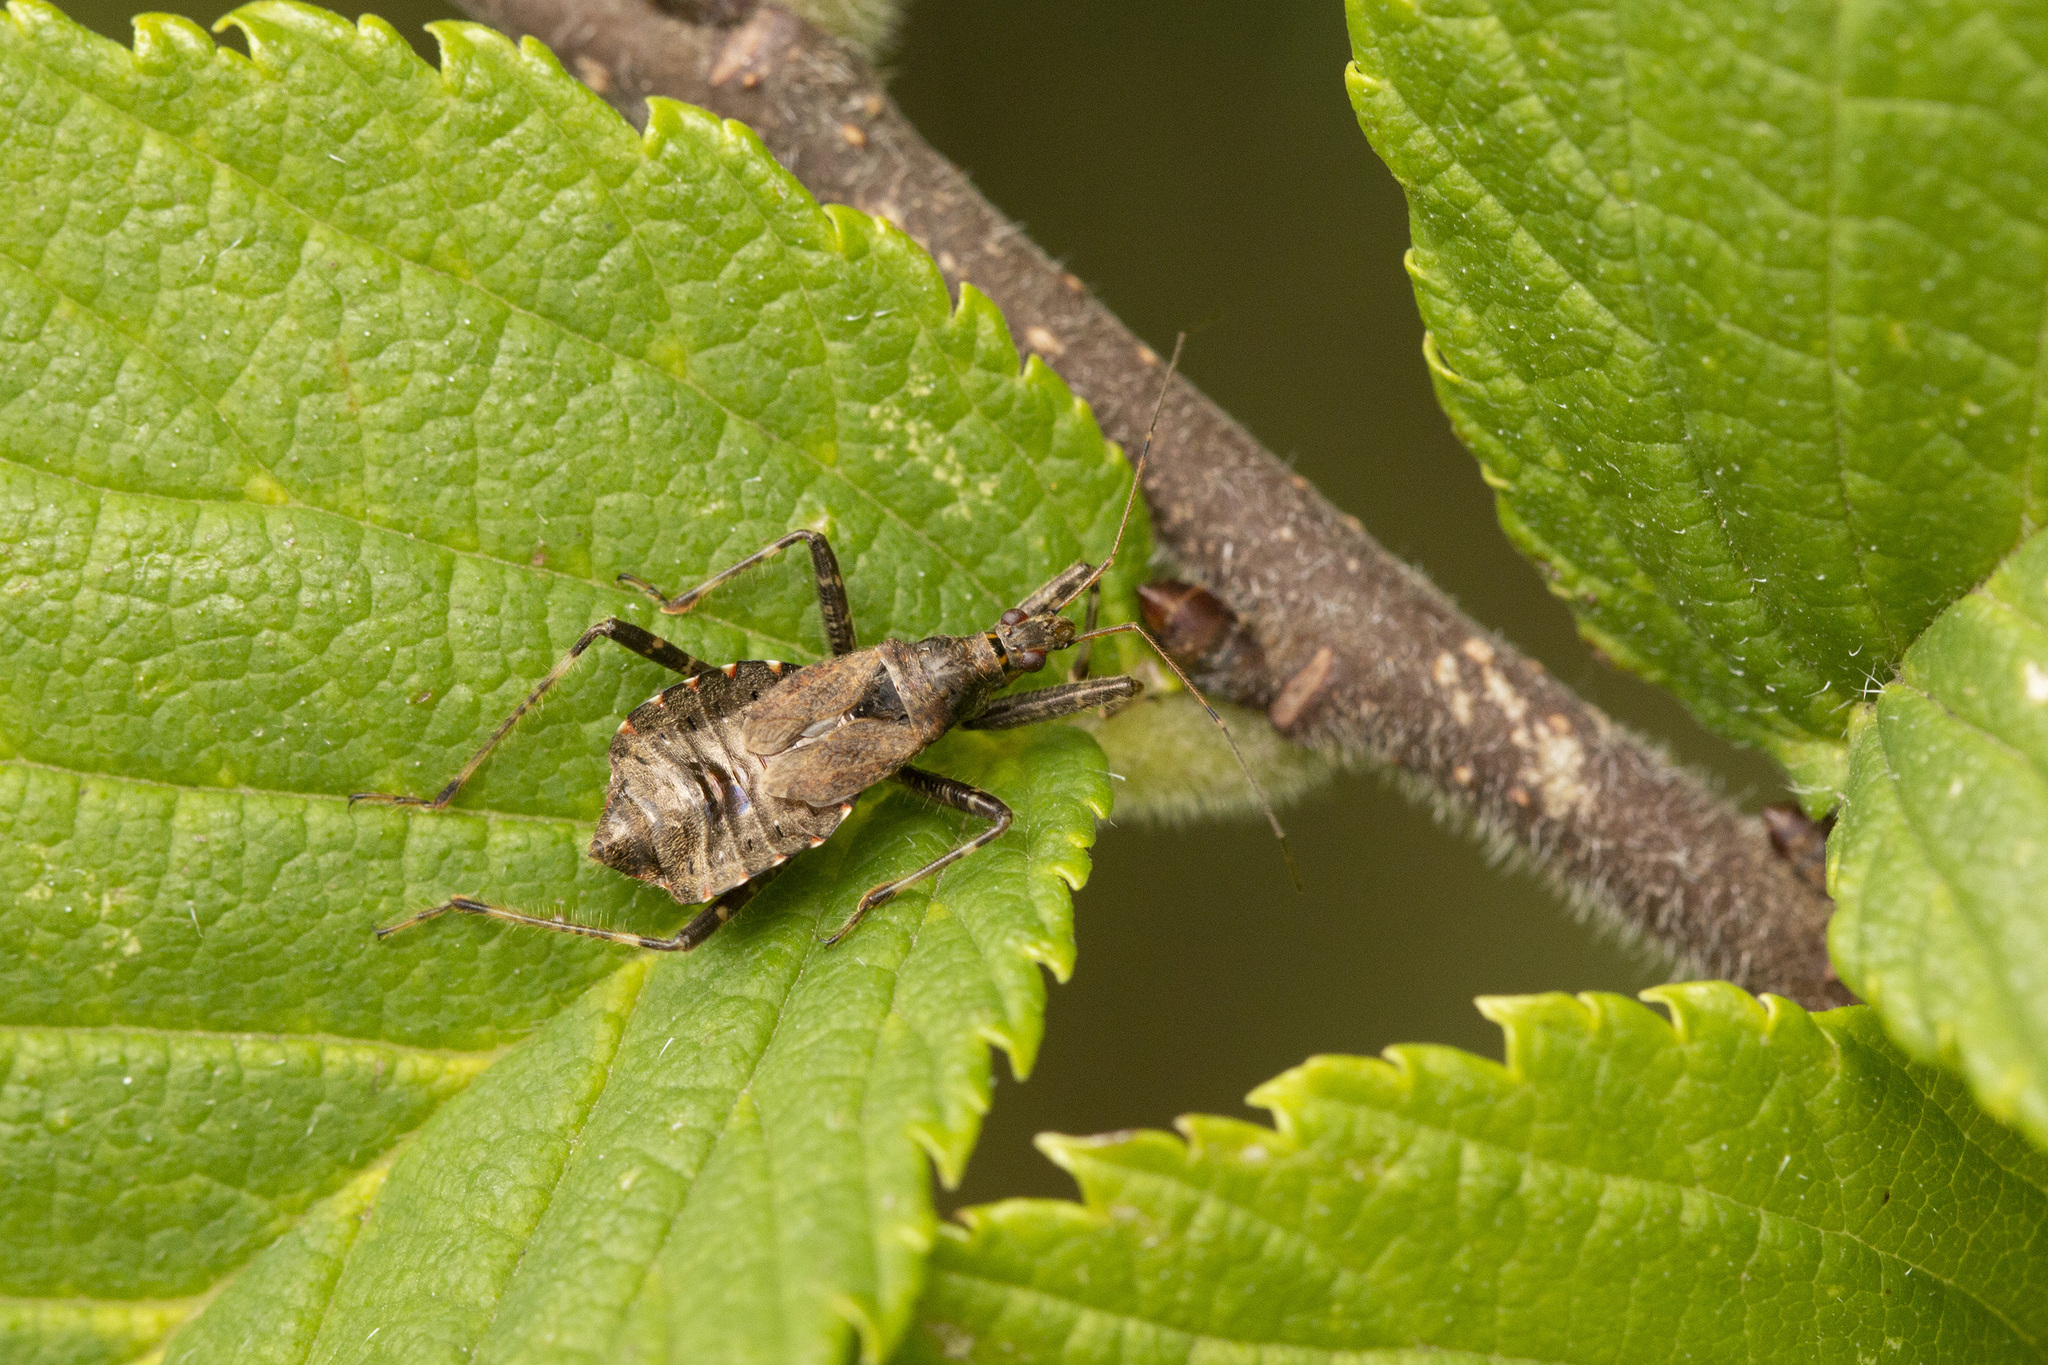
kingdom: Animalia
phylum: Arthropoda
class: Insecta
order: Hemiptera
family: Nabidae
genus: Himacerus
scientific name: Himacerus apterus
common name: Tree damsel bug
